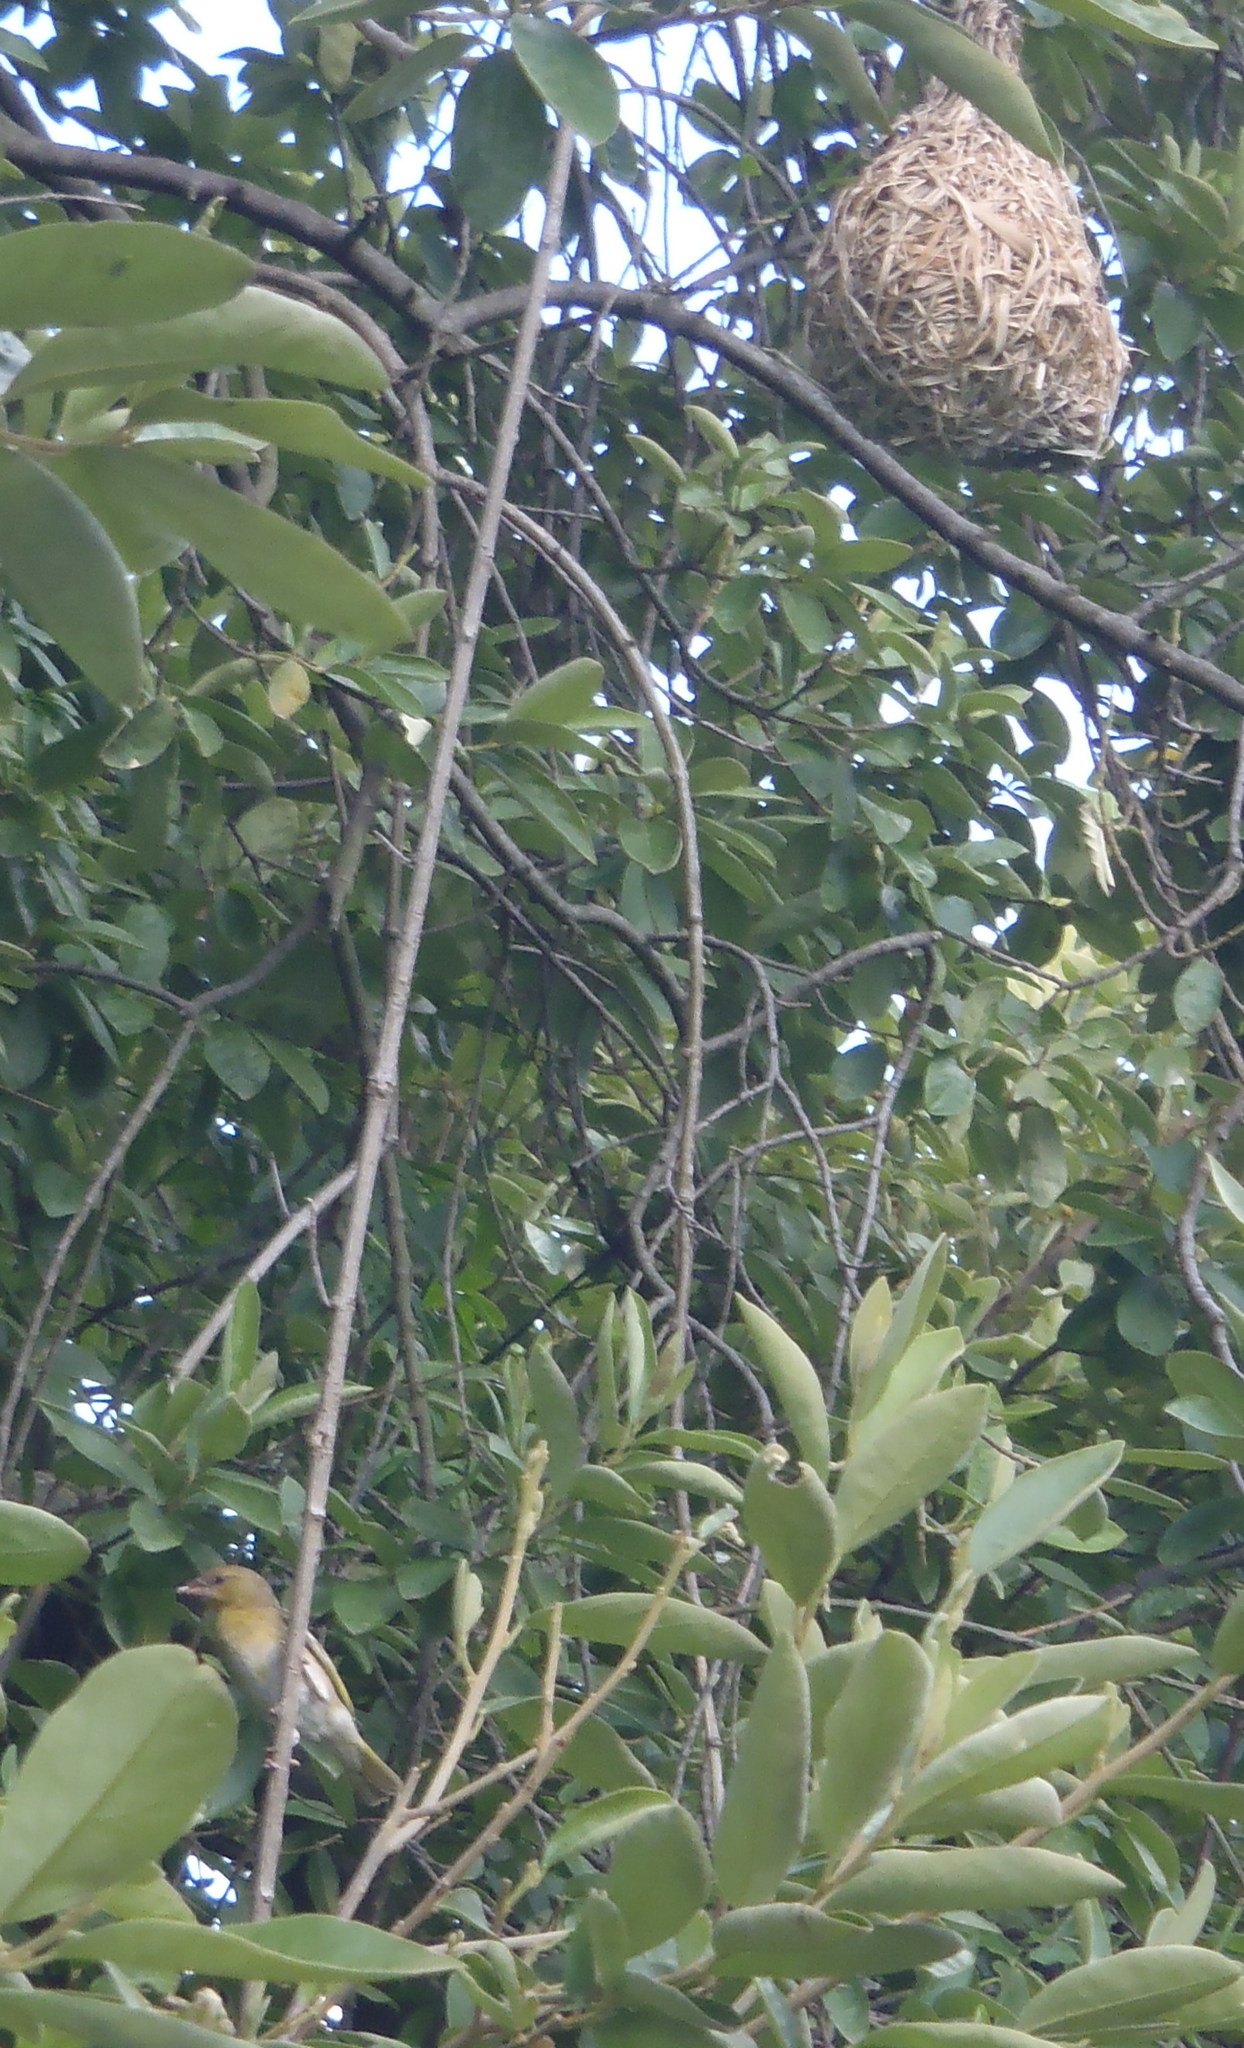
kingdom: Animalia
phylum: Chordata
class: Aves
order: Passeriformes
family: Ploceidae
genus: Ploceus
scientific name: Ploceus velatus
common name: Southern masked weaver
